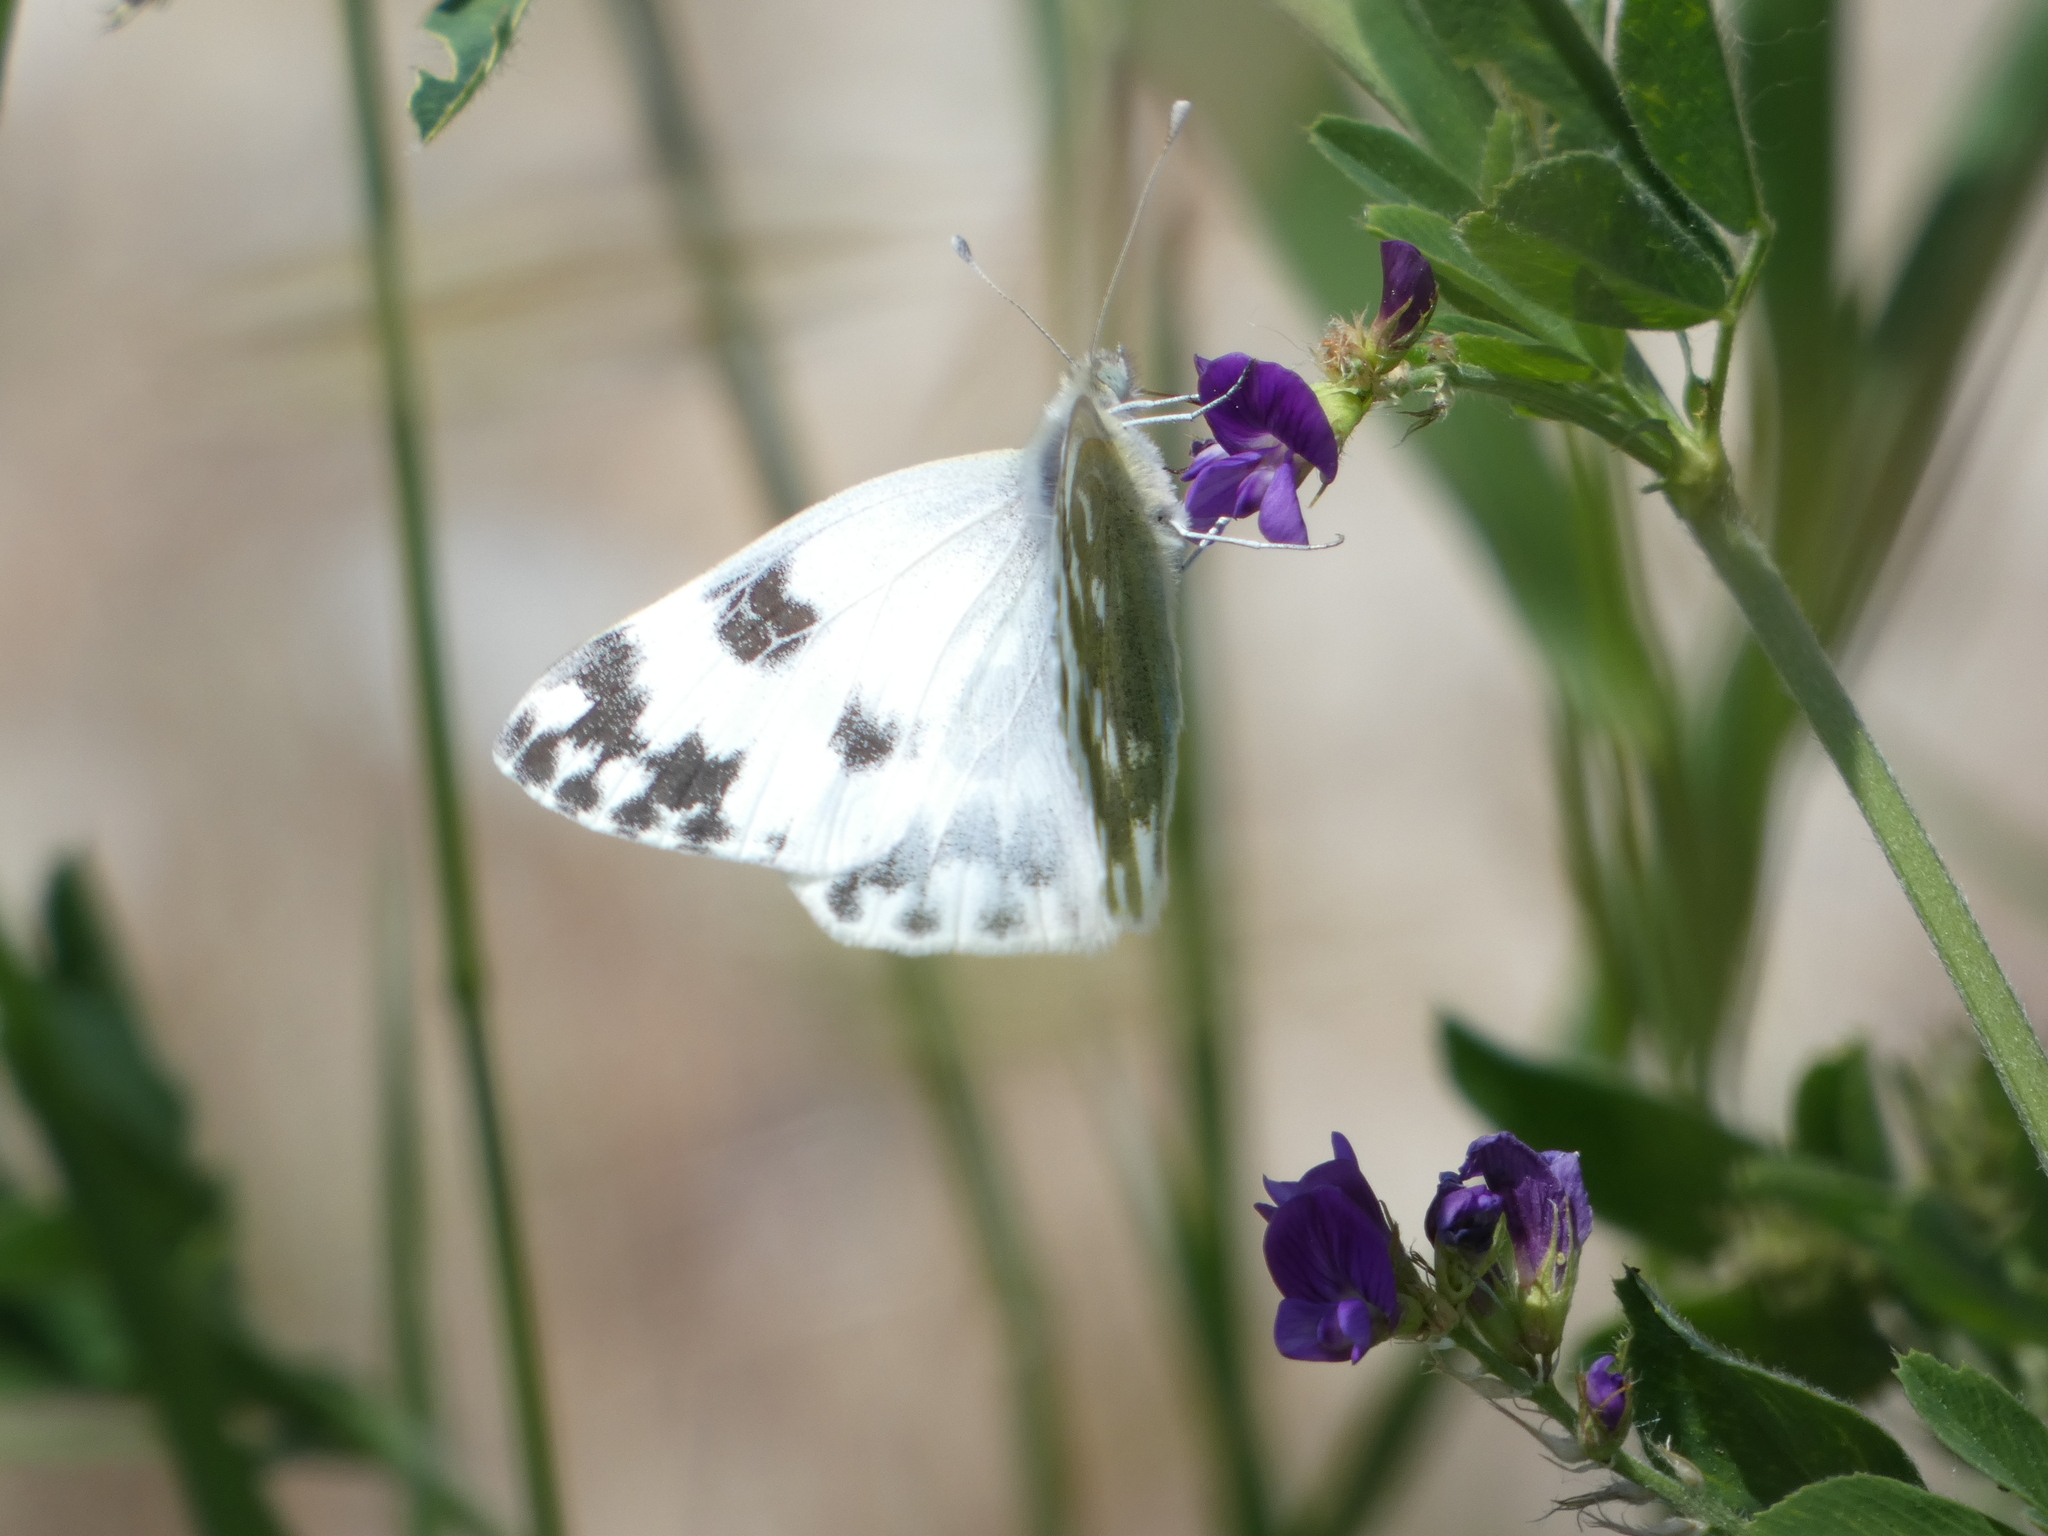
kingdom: Animalia
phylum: Arthropoda
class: Insecta
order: Lepidoptera
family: Pieridae
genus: Pontia
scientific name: Pontia edusa
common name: Eastern bath white
